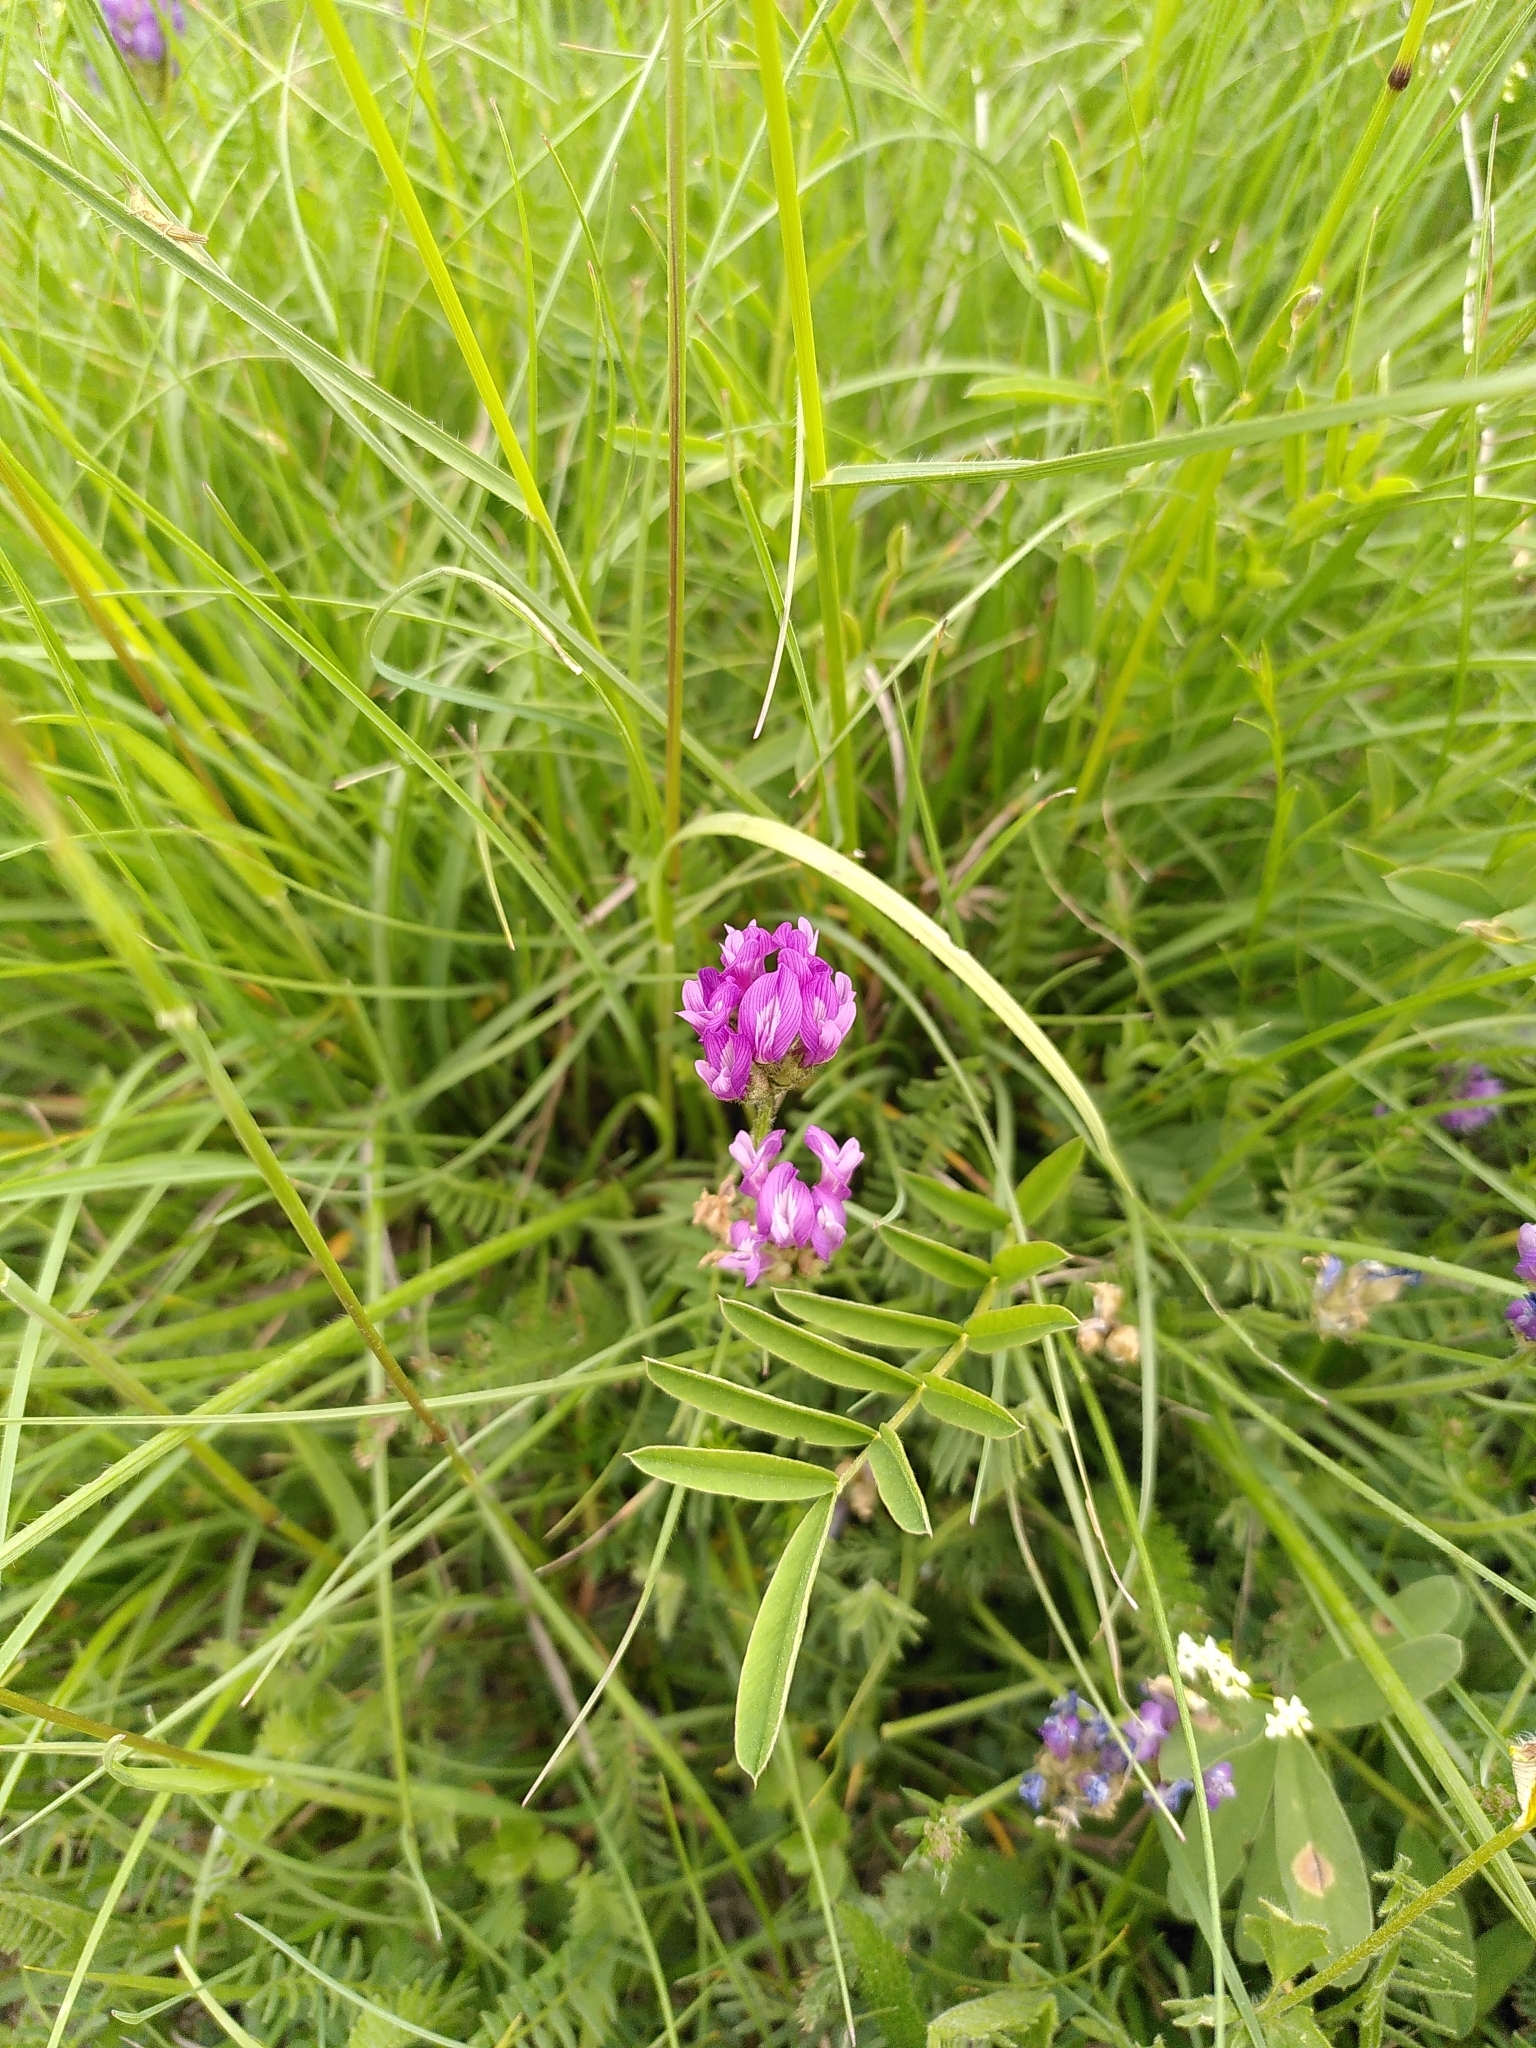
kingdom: Plantae
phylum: Tracheophyta
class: Magnoliopsida
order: Fabales
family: Fabaceae
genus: Astragalus
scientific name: Astragalus danicus
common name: Purple milk-vetch
